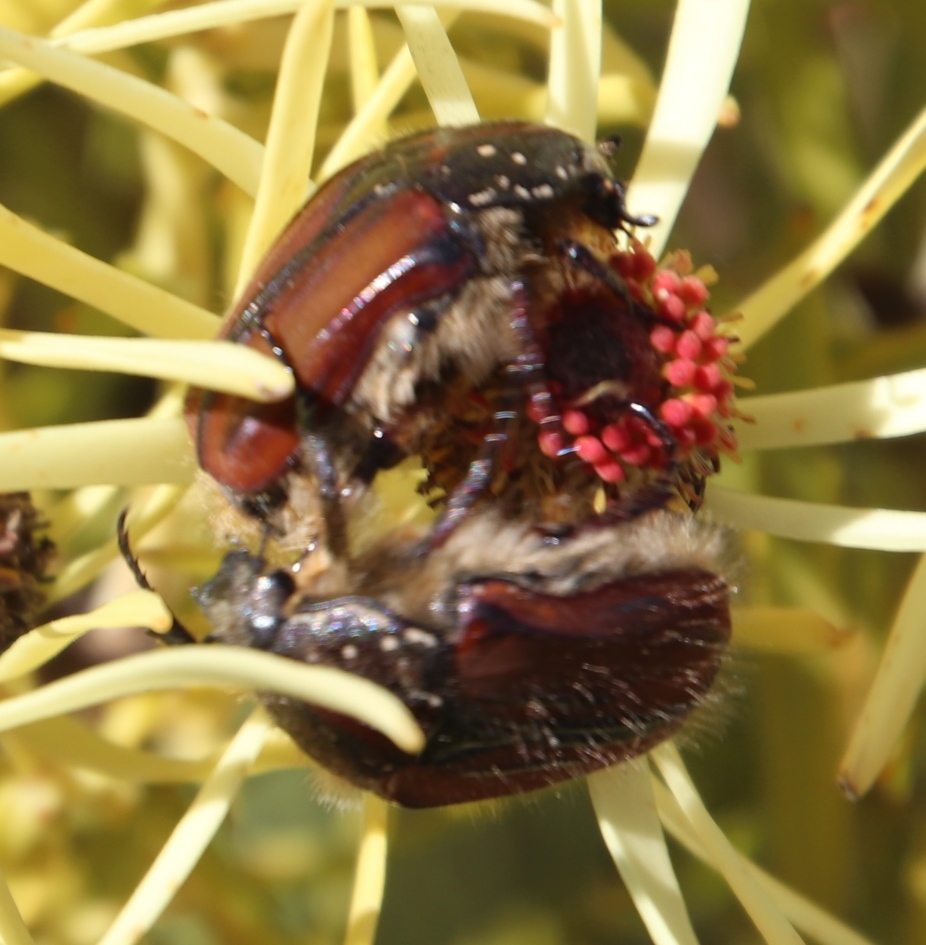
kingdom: Animalia
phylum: Arthropoda
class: Insecta
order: Coleoptera
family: Scarabaeidae
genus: Trichostetha
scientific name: Trichostetha capensis
